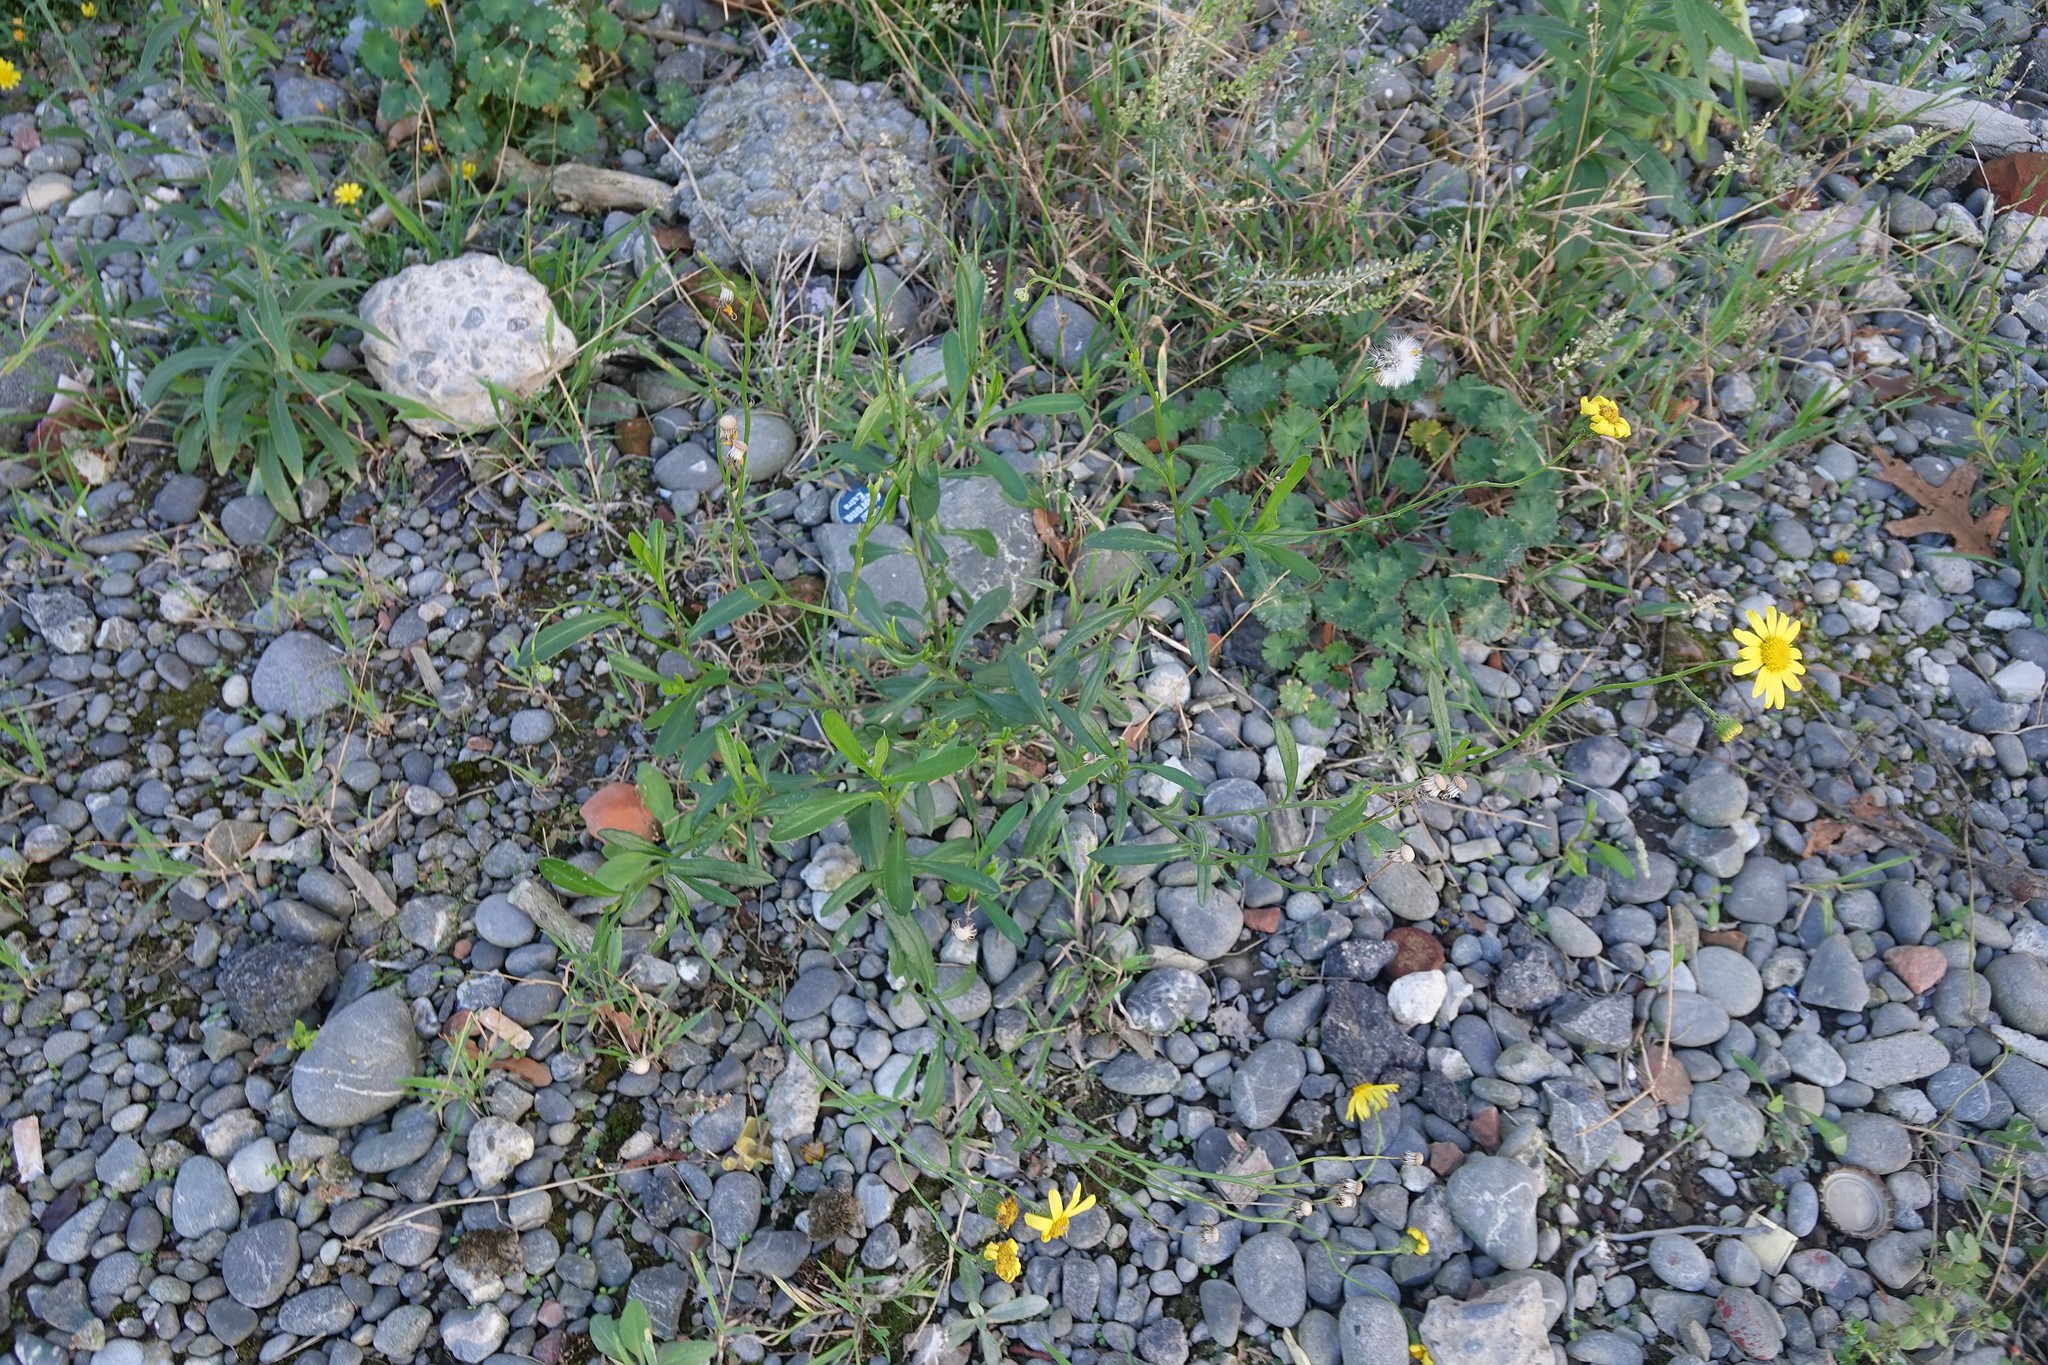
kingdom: Plantae
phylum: Tracheophyta
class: Magnoliopsida
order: Asterales
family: Asteraceae
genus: Senecio
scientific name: Senecio skirrhodon
